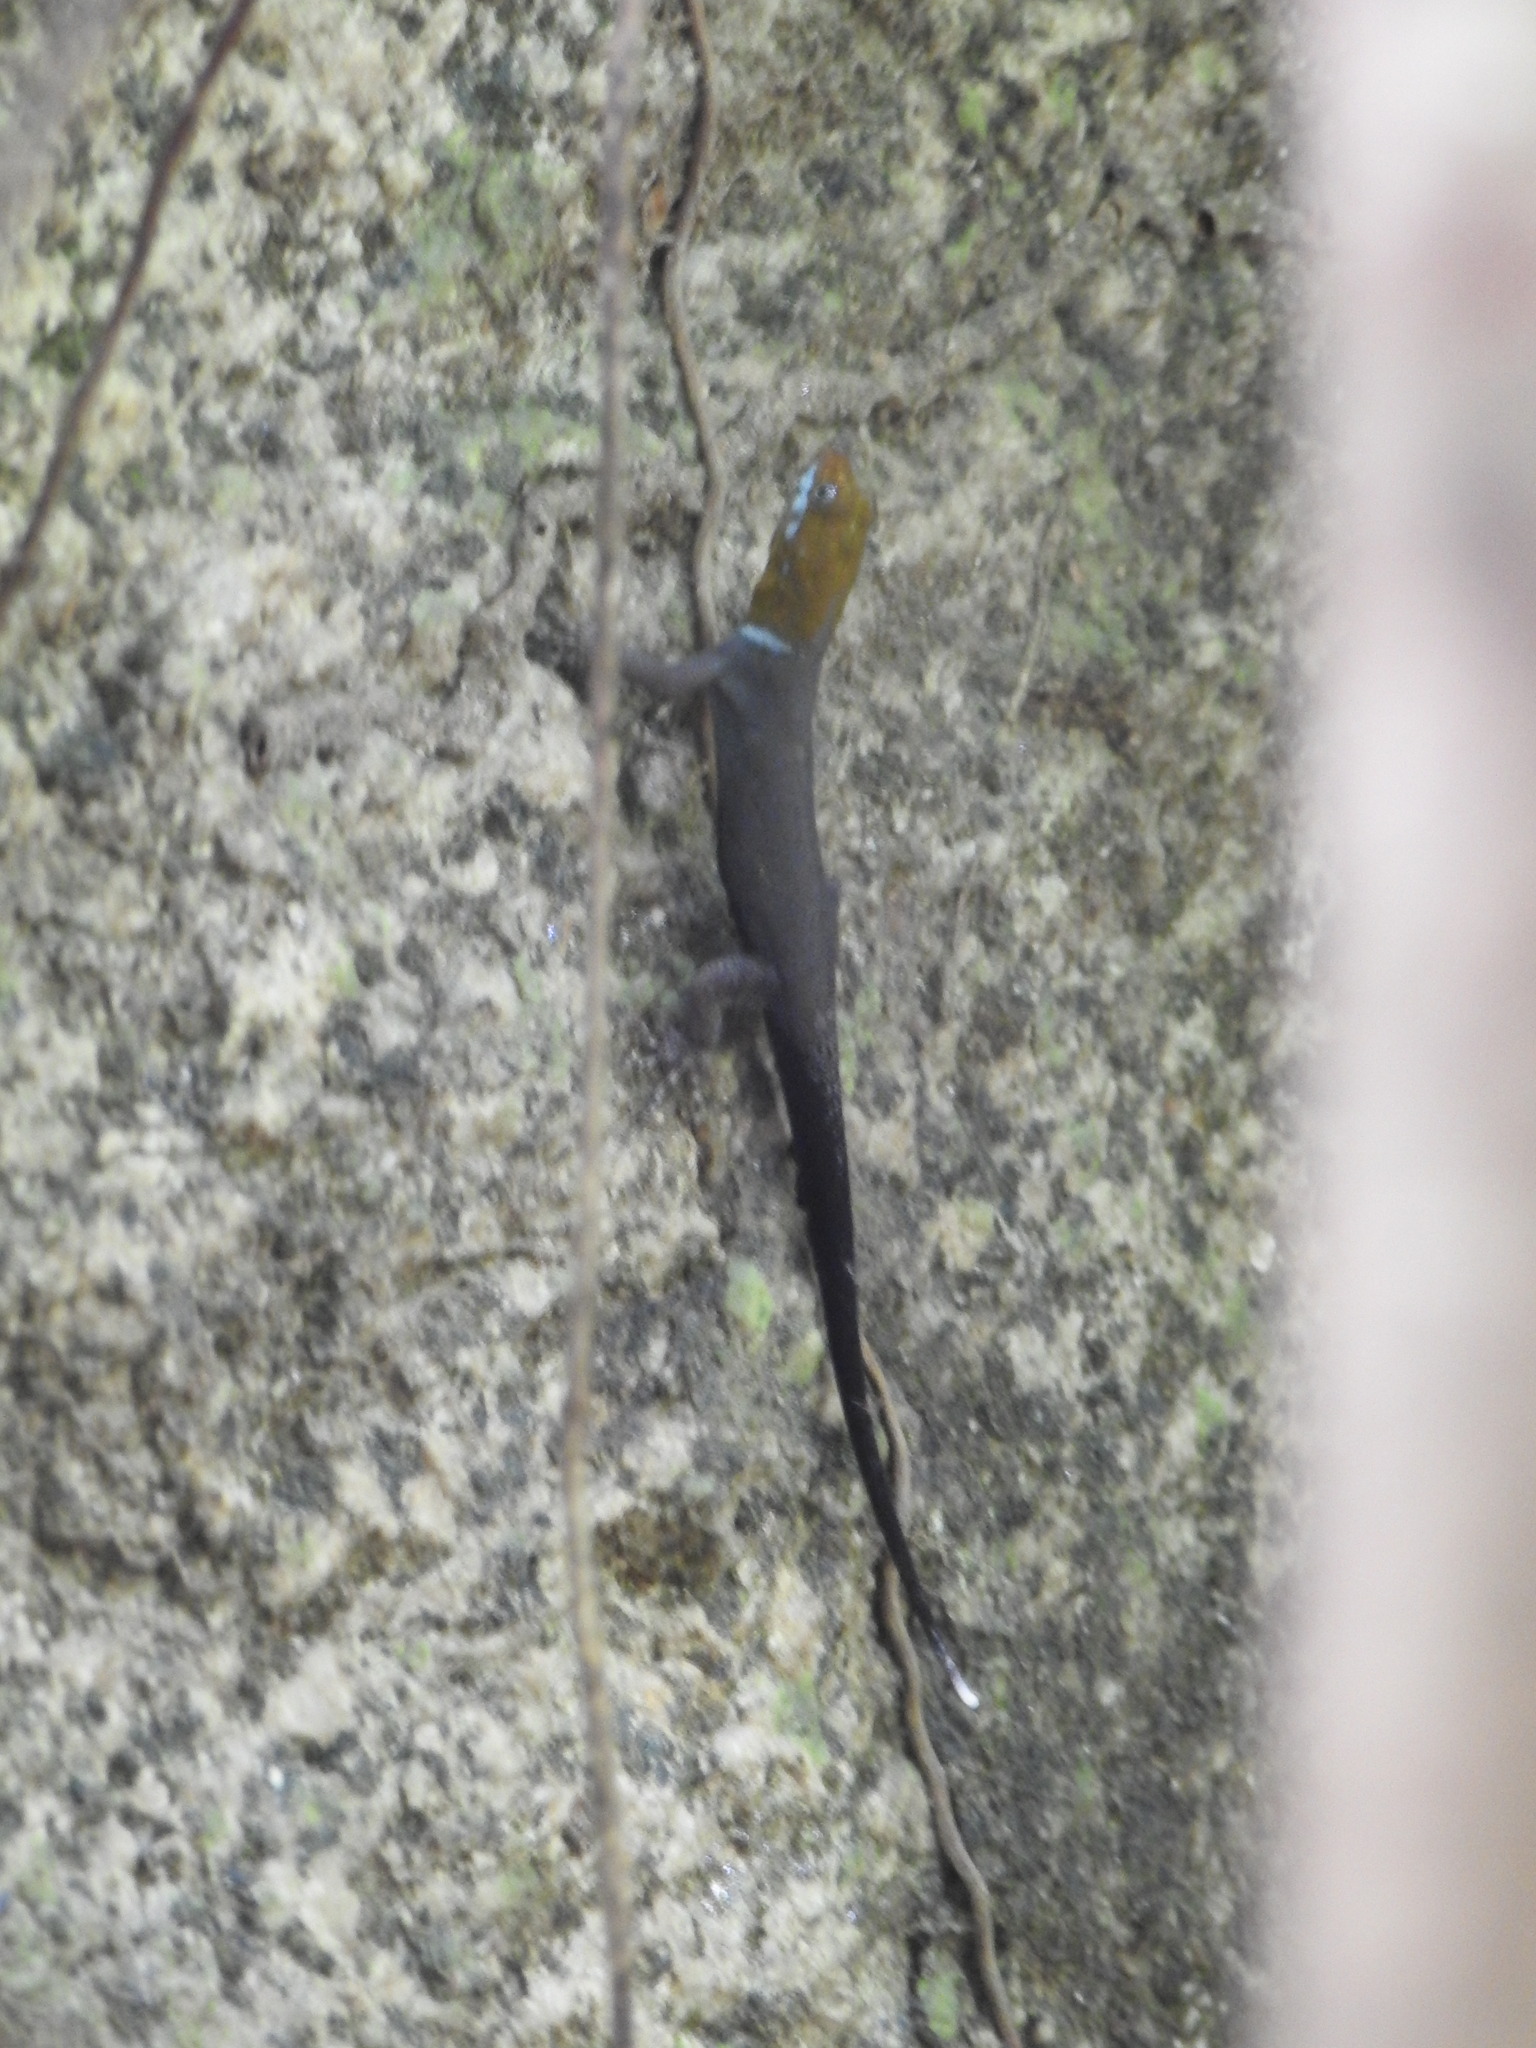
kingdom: Animalia
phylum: Chordata
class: Squamata
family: Sphaerodactylidae
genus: Gonatodes
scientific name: Gonatodes albogularis
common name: Yellow-headed gecko
